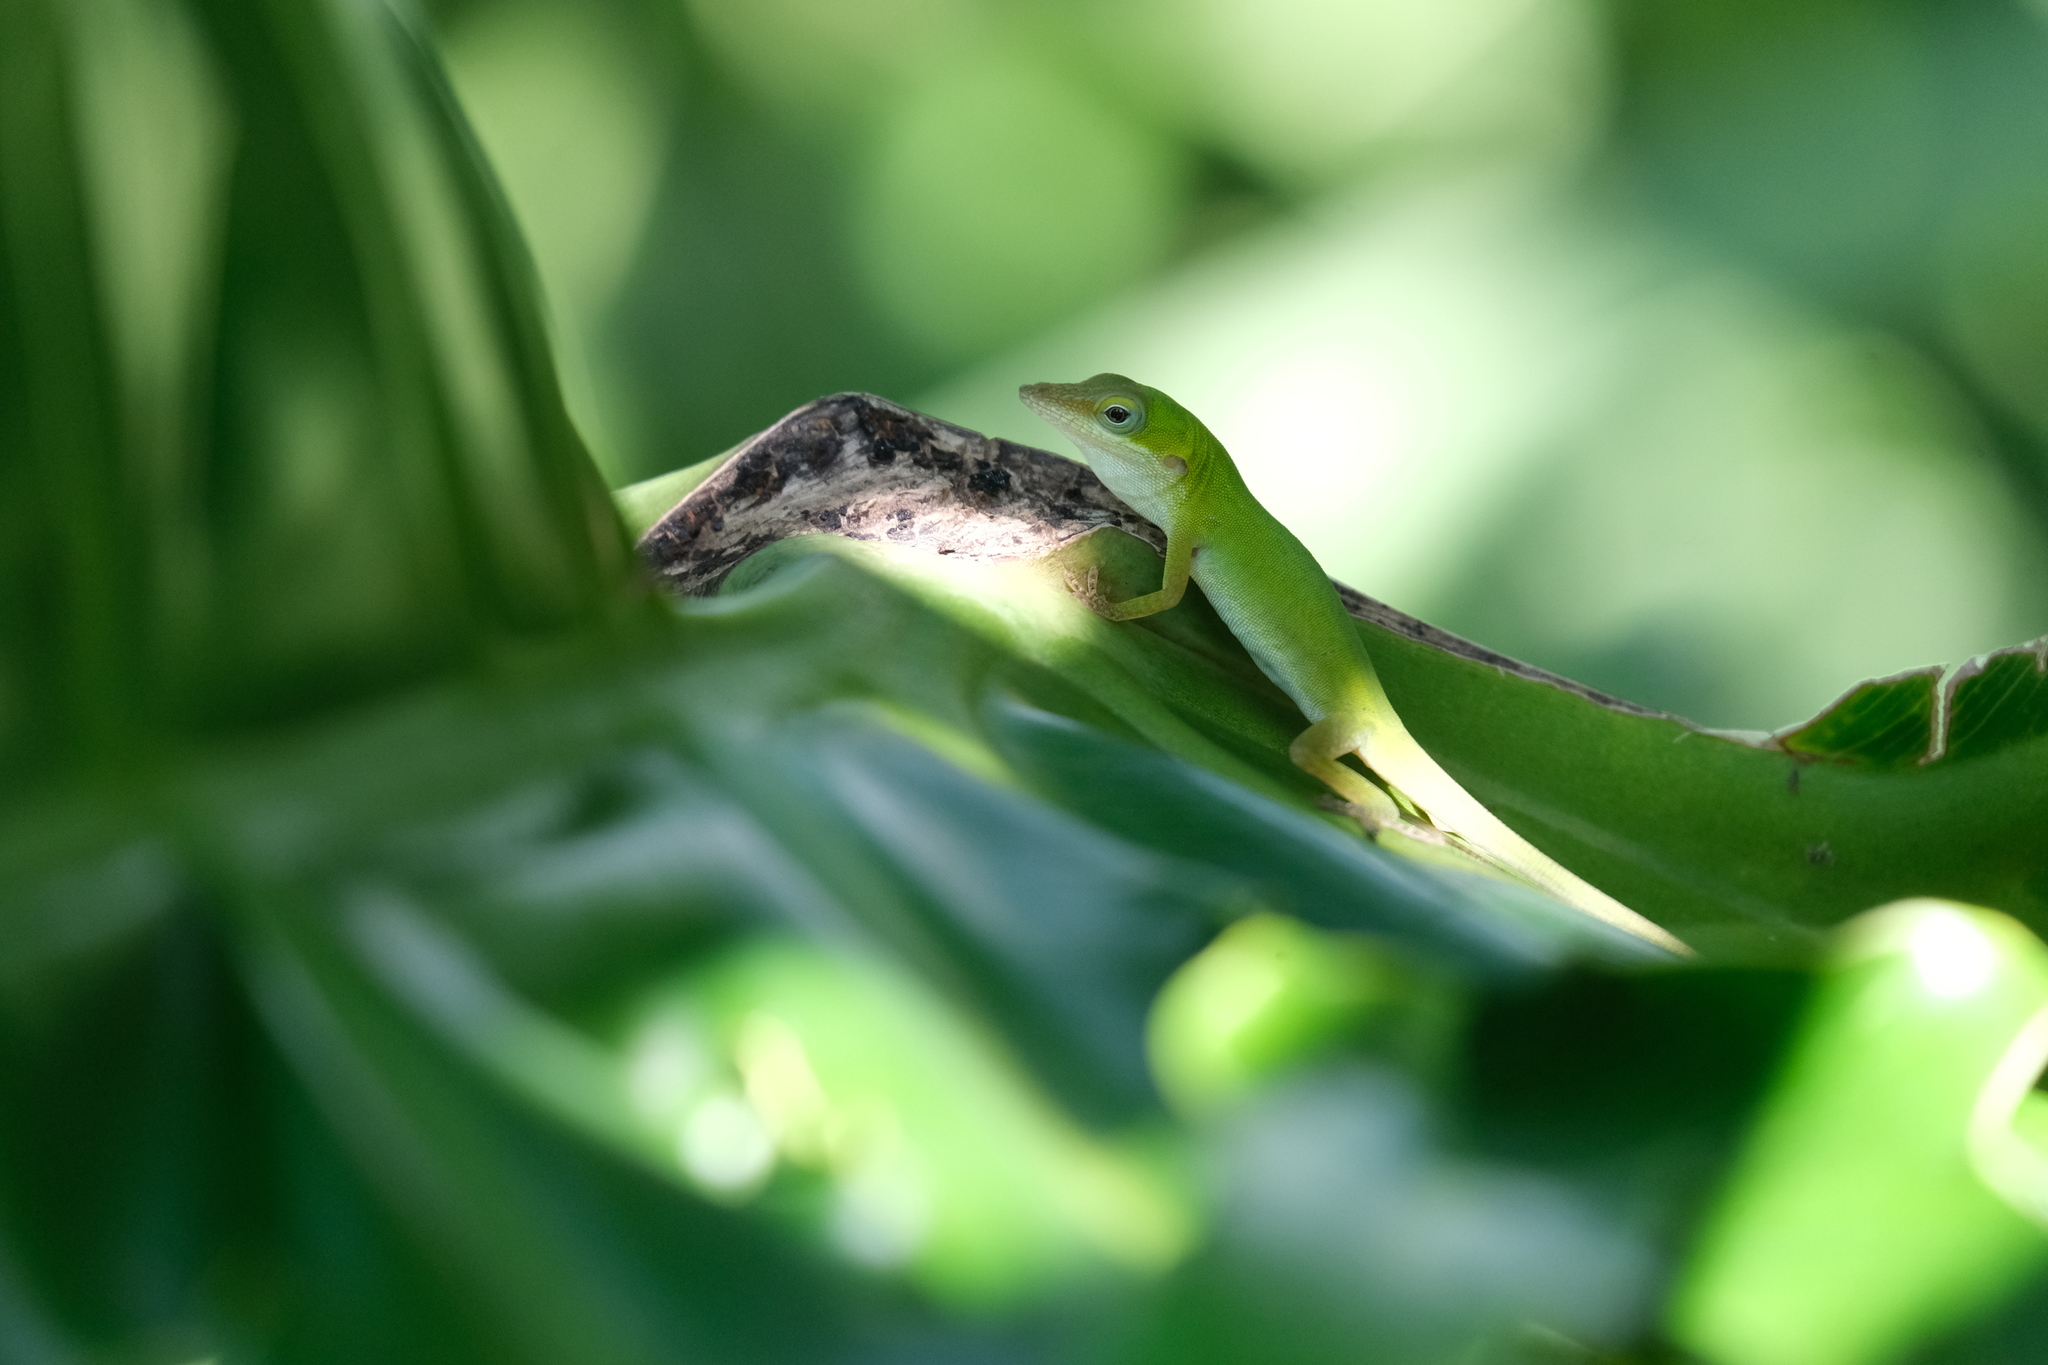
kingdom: Animalia
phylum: Chordata
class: Squamata
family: Dactyloidae
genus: Anolis
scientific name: Anolis allisoni
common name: Allison's anole
